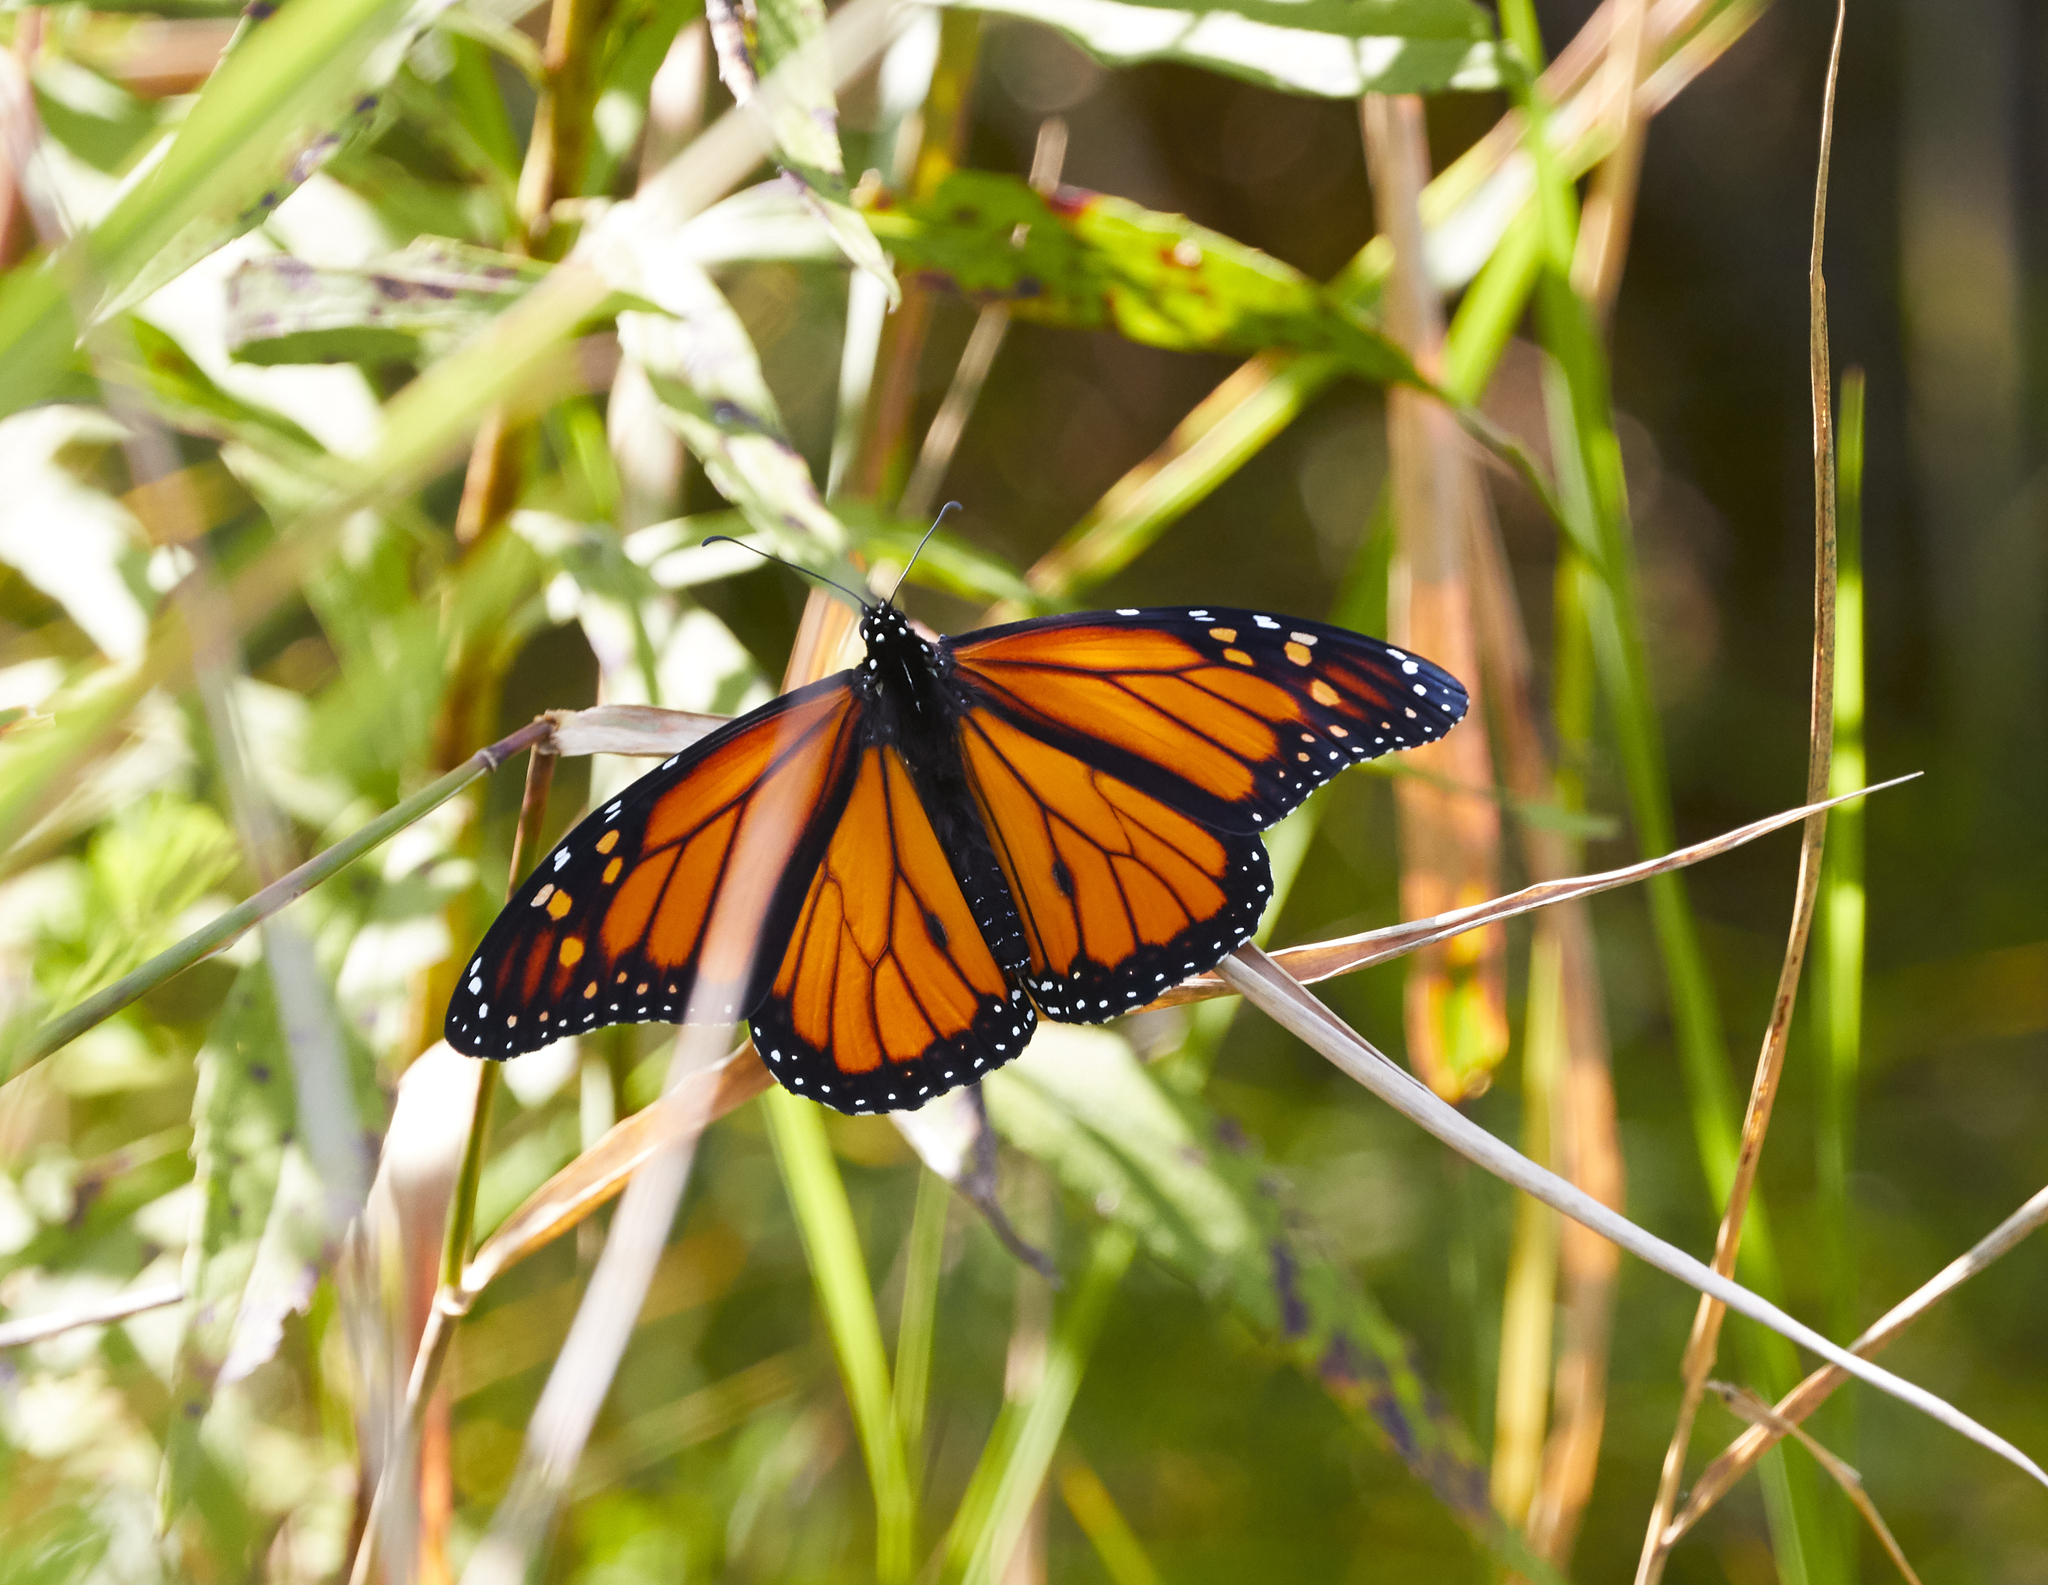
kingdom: Animalia
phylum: Arthropoda
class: Insecta
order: Lepidoptera
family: Nymphalidae
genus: Danaus
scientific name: Danaus plexippus
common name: Monarch
